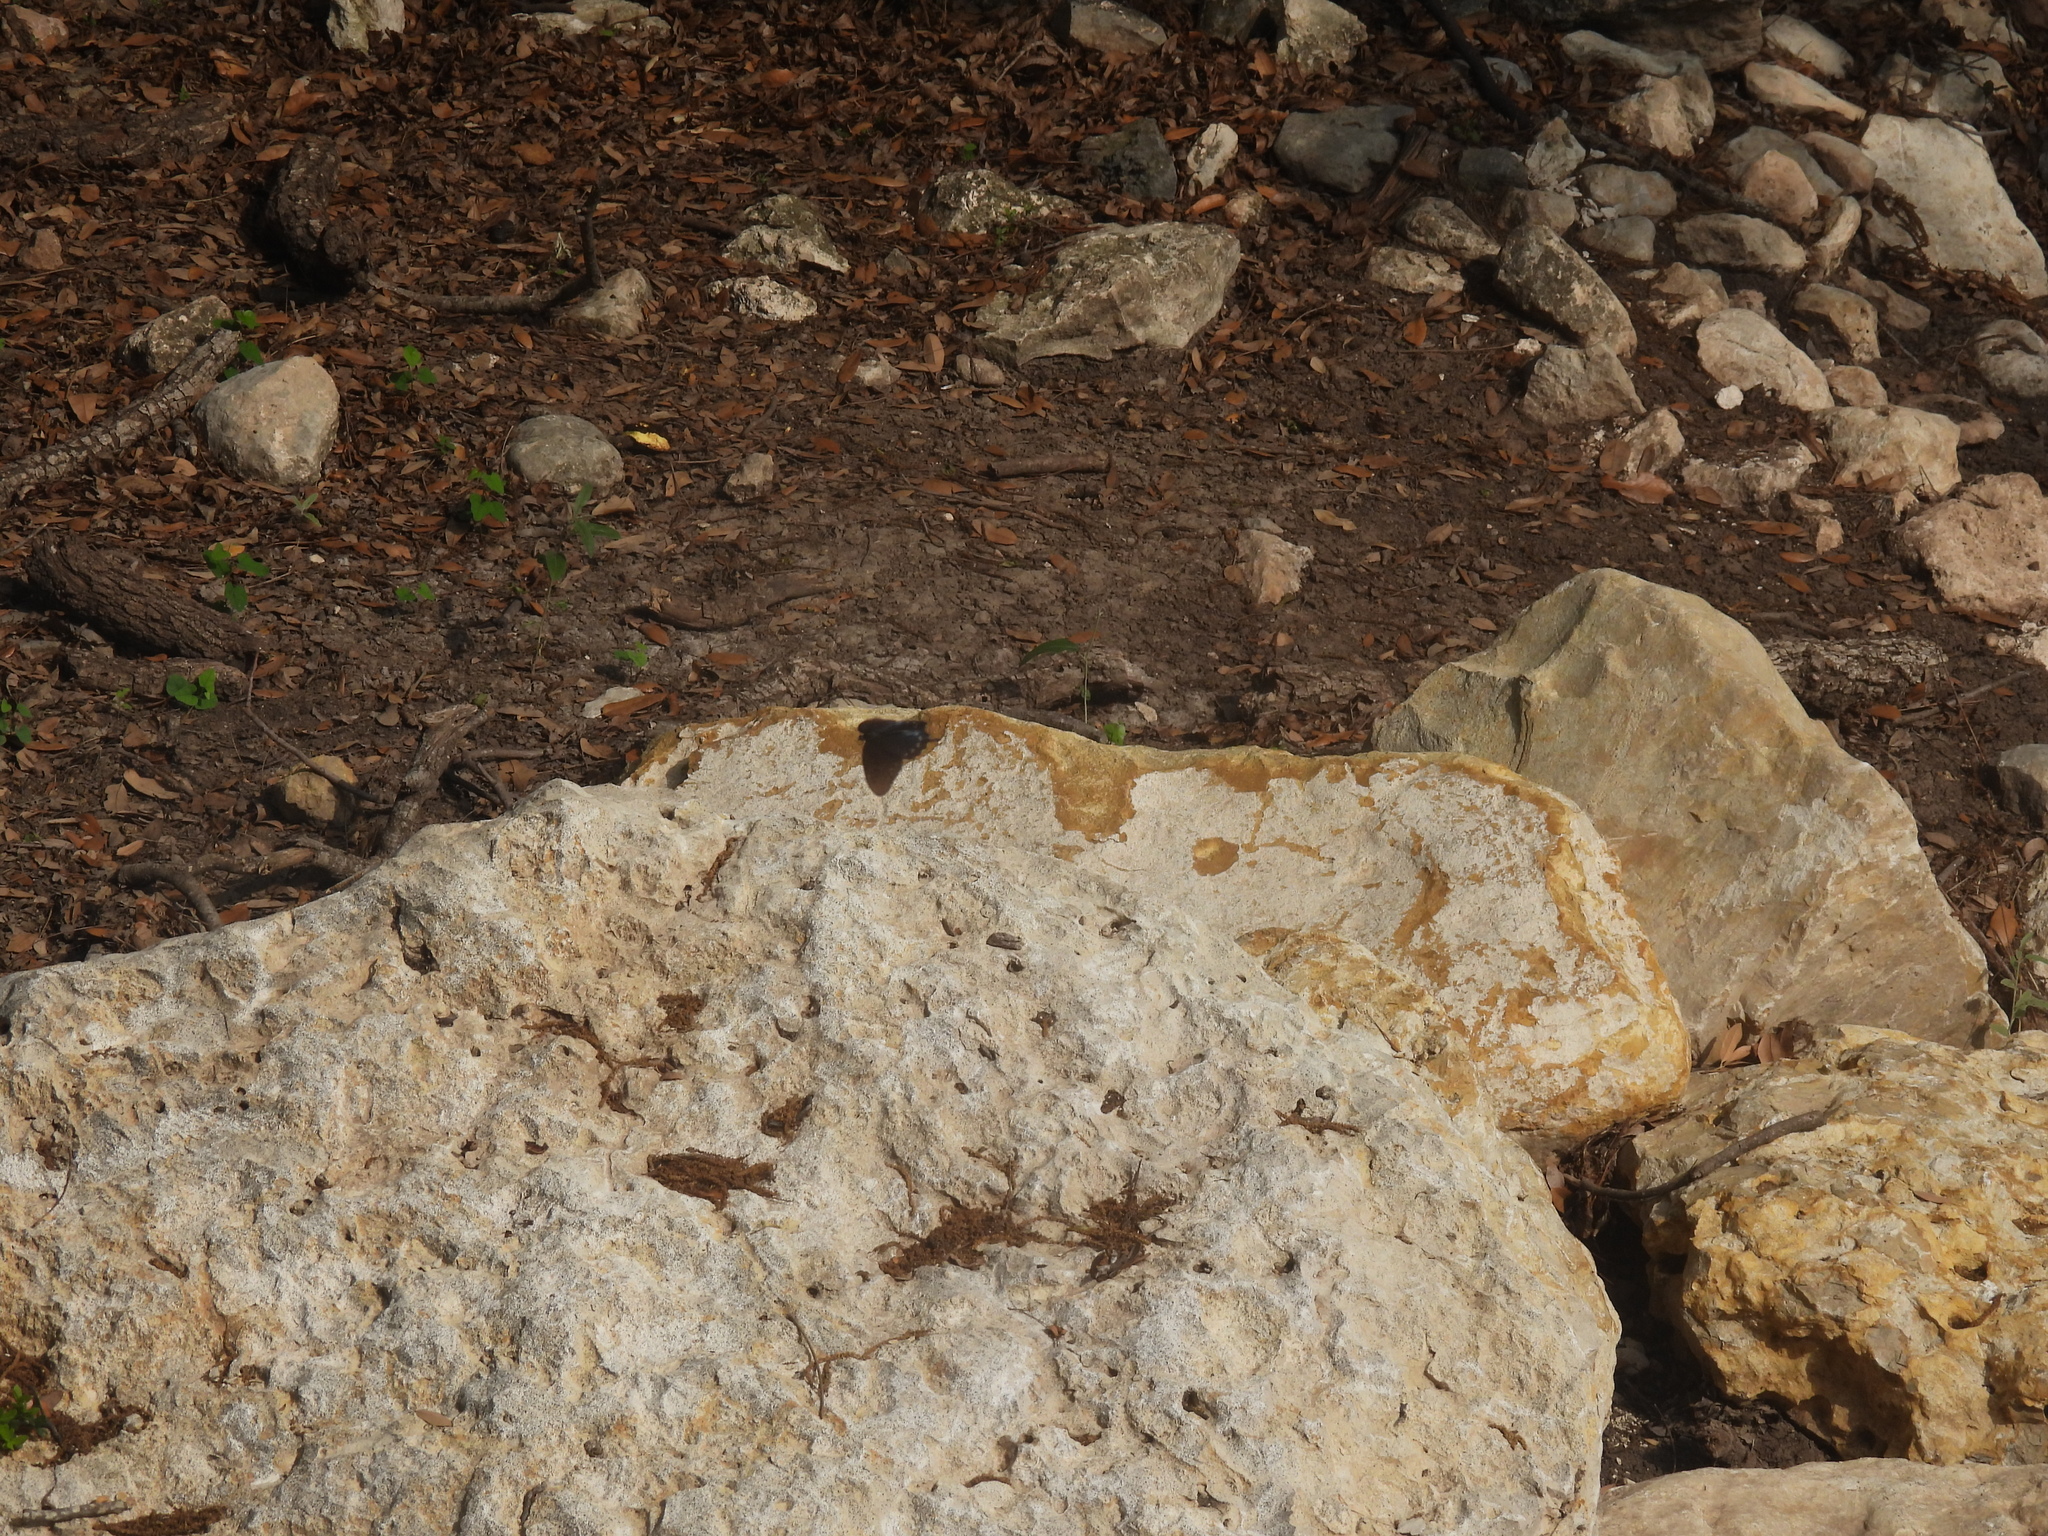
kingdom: Animalia
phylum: Arthropoda
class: Insecta
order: Lepidoptera
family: Papilionidae
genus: Battus
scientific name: Battus philenor
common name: Pipevine swallowtail
